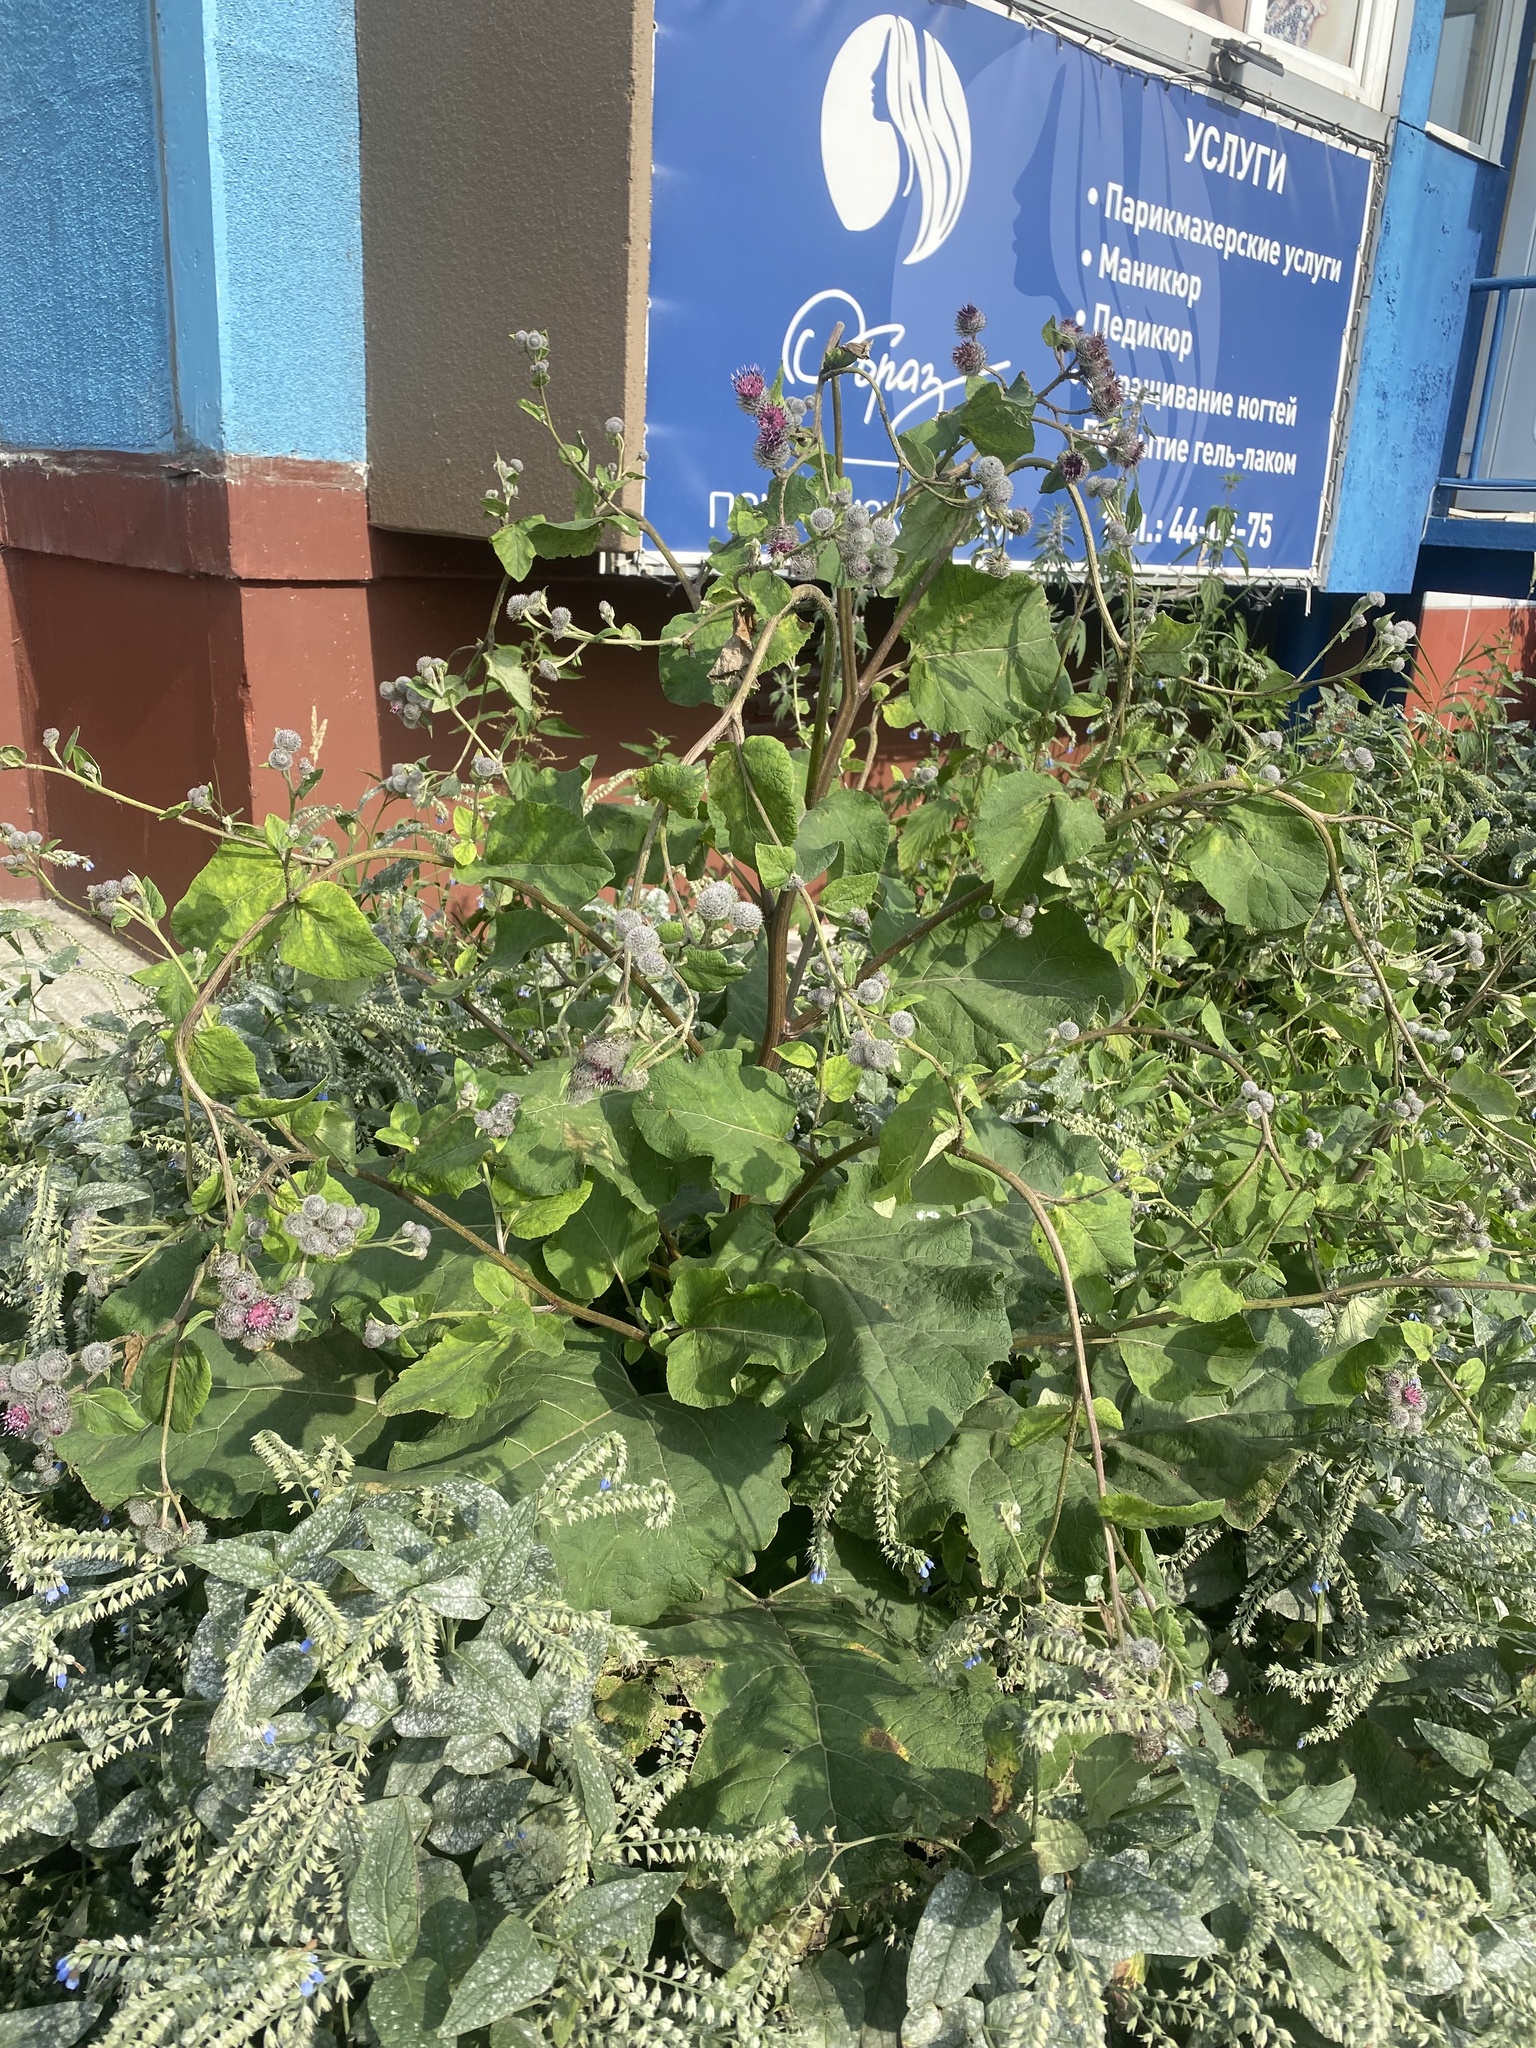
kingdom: Plantae
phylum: Tracheophyta
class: Magnoliopsida
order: Asterales
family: Asteraceae
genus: Arctium
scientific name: Arctium tomentosum
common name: Woolly burdock
